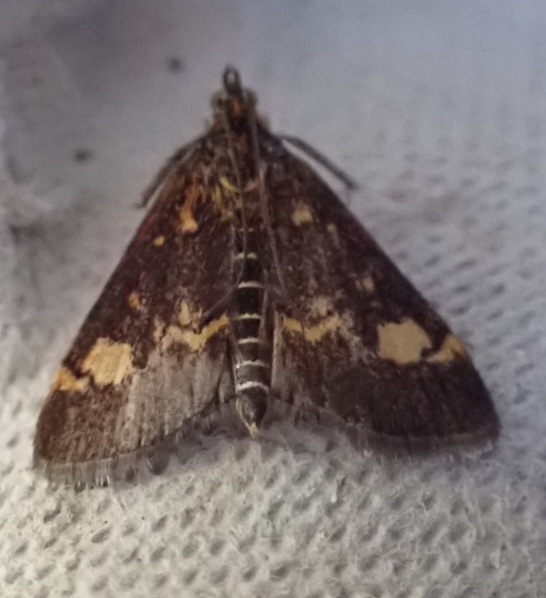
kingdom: Animalia
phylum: Arthropoda
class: Insecta
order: Lepidoptera
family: Crambidae
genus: Pyrausta
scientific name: Pyrausta aurata
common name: Small purple & gold
